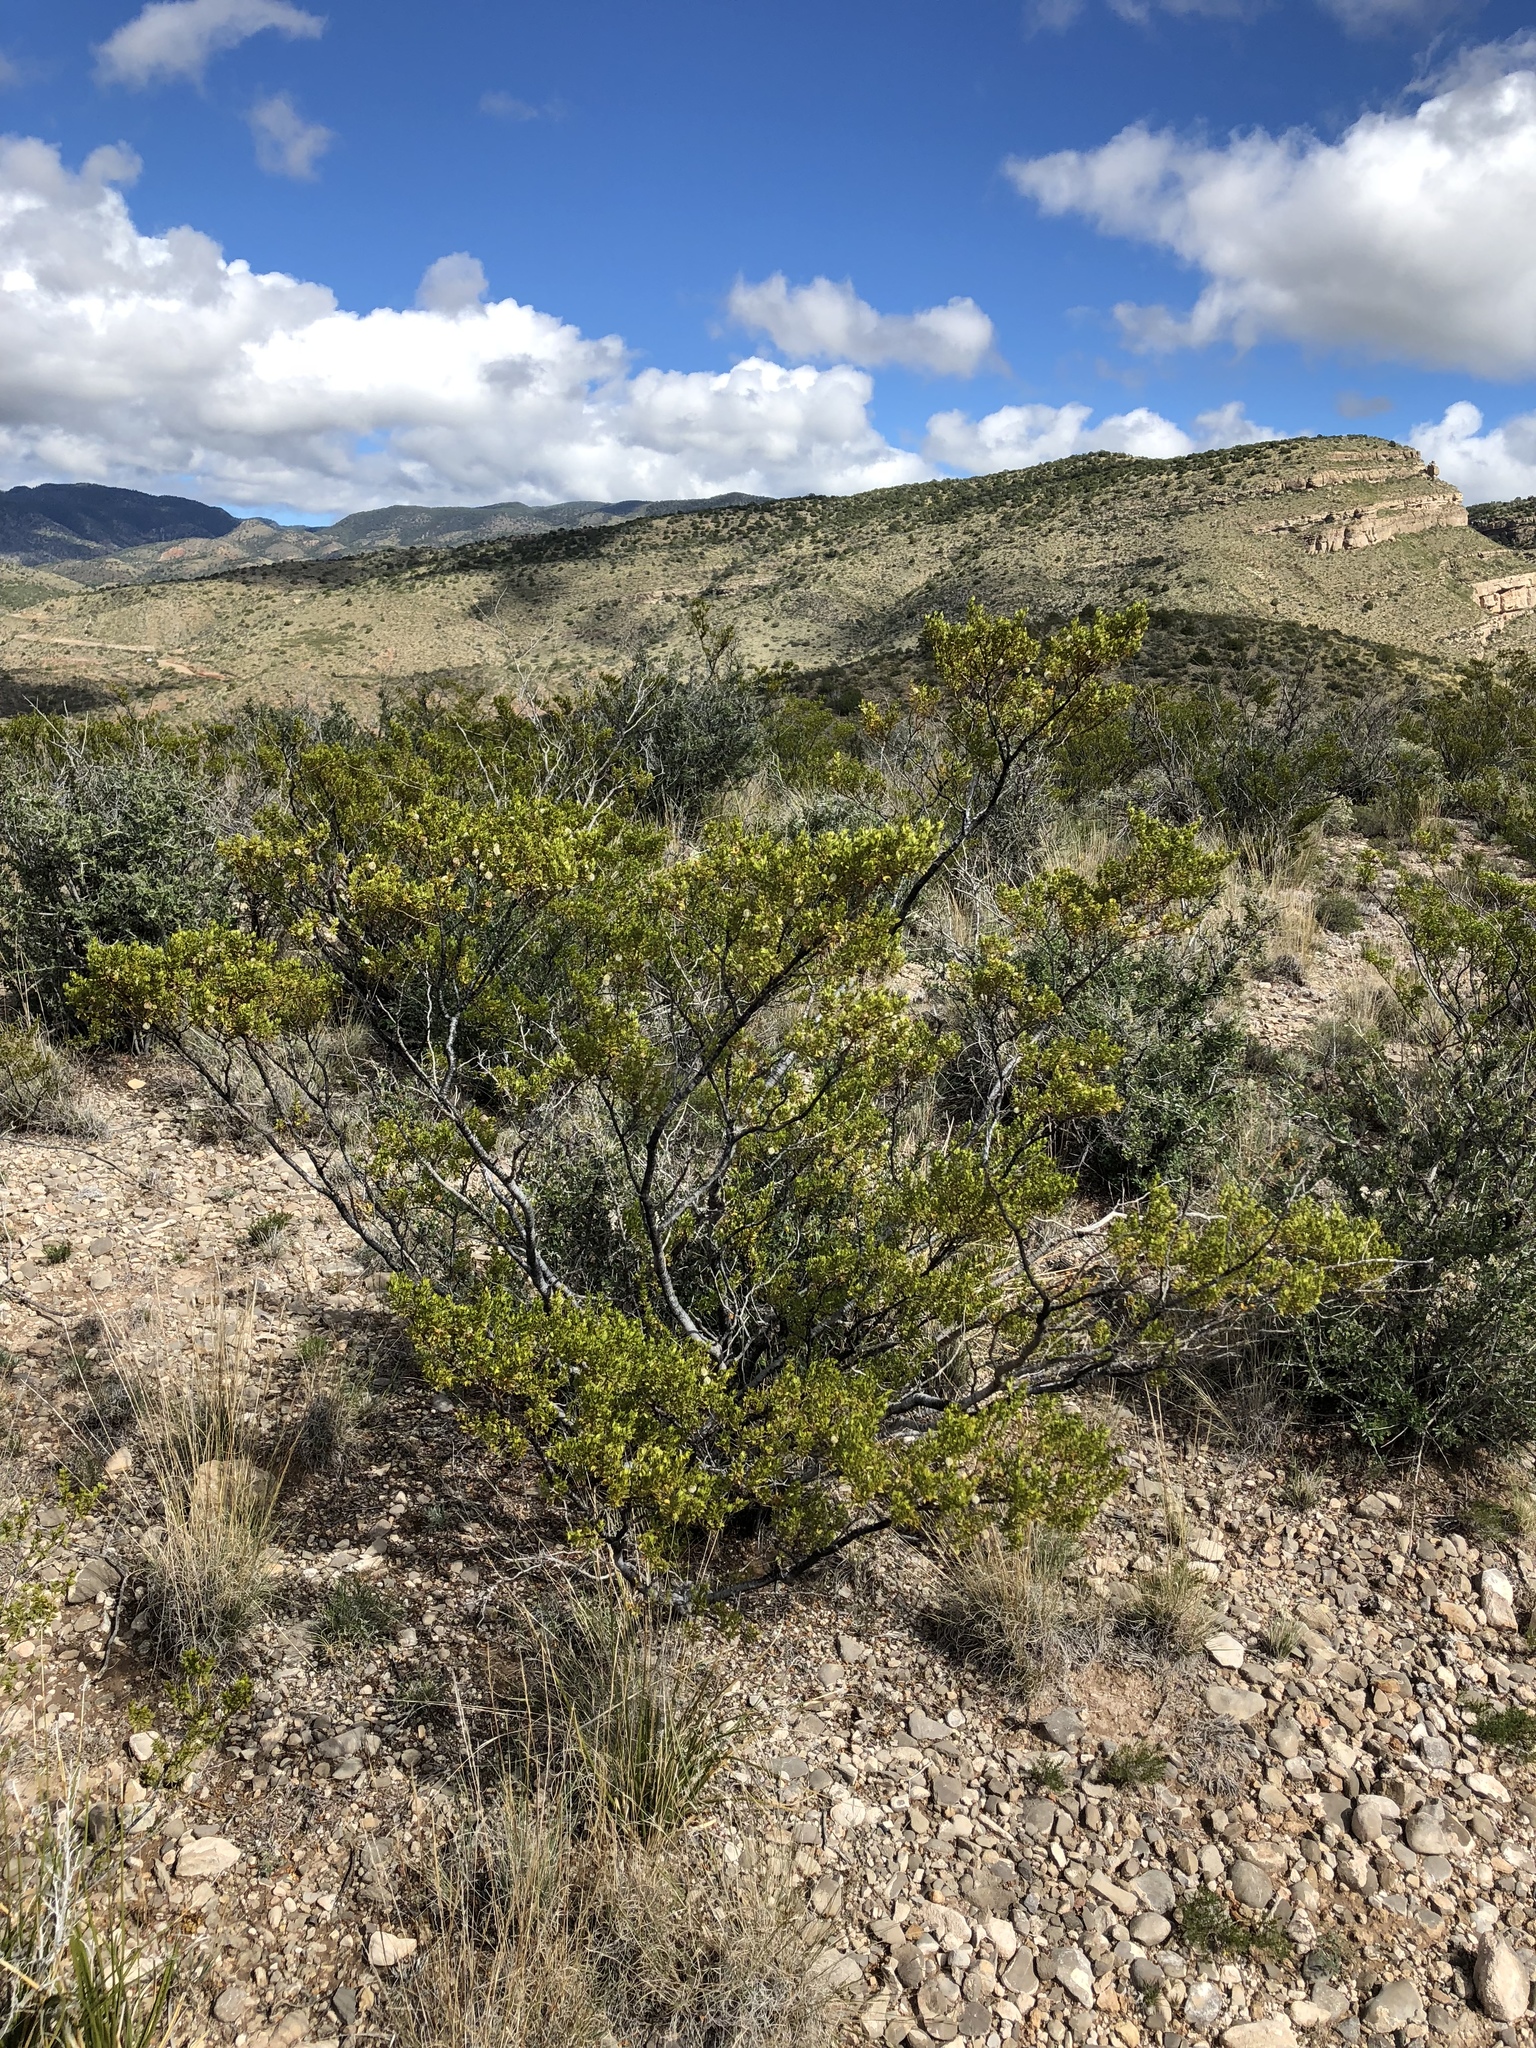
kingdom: Plantae
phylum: Tracheophyta
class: Magnoliopsida
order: Zygophyllales
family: Zygophyllaceae
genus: Larrea
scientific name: Larrea tridentata
